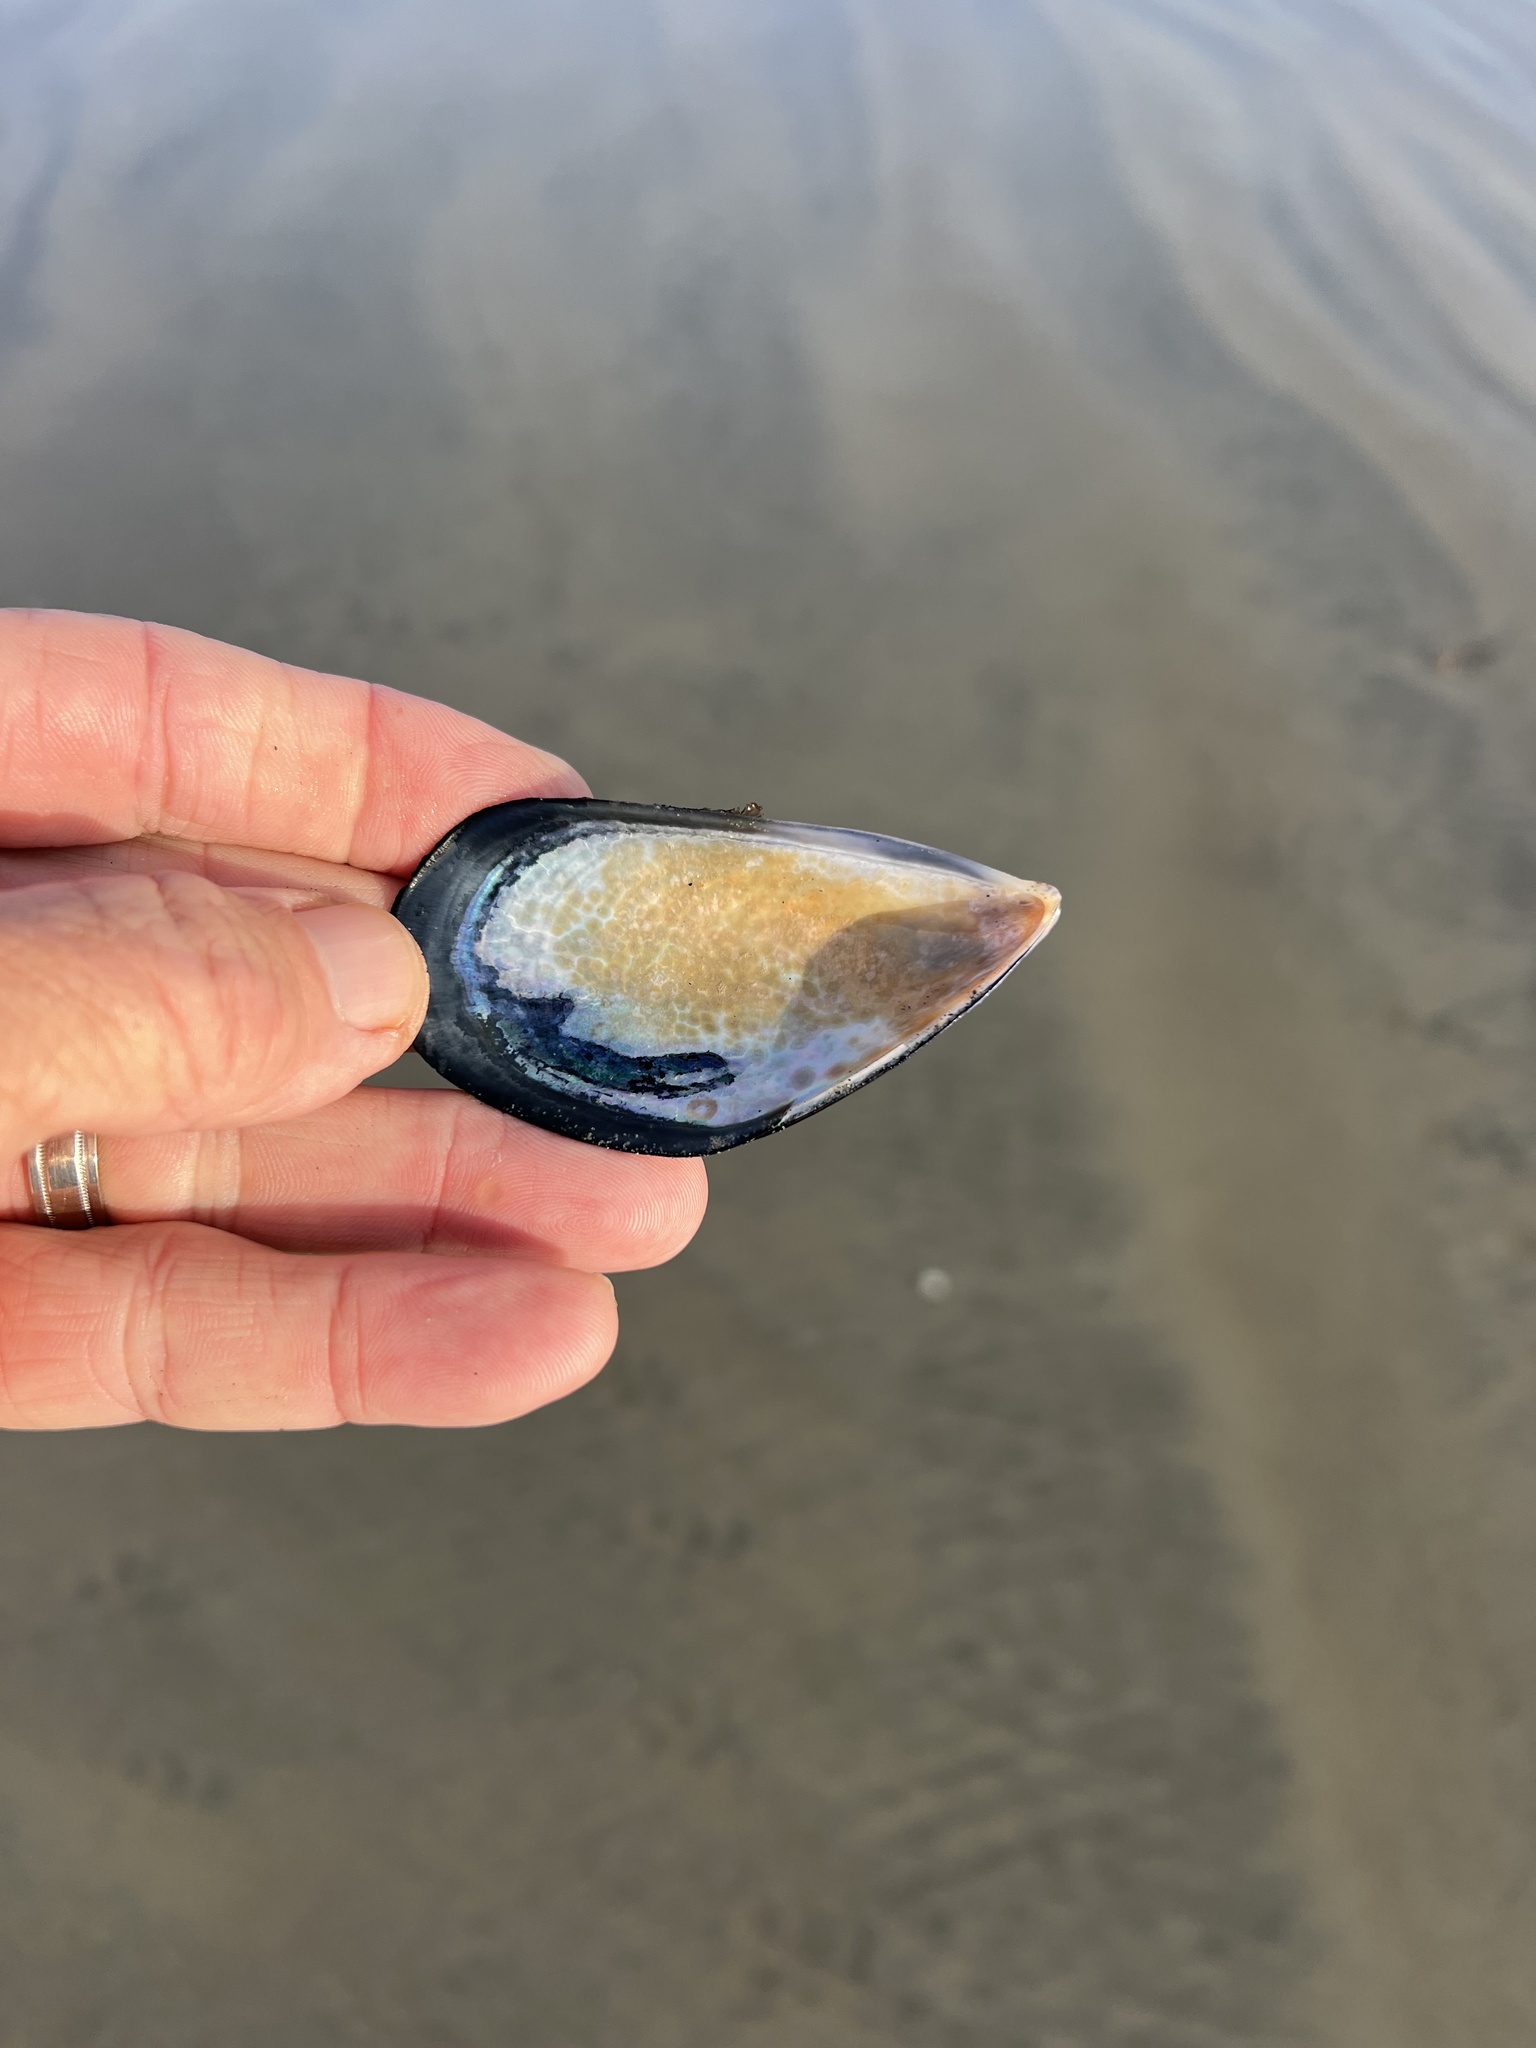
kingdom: Animalia
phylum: Mollusca
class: Bivalvia
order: Mytilida
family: Mytilidae
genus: Mytilus
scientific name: Mytilus californianus
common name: California mussel
